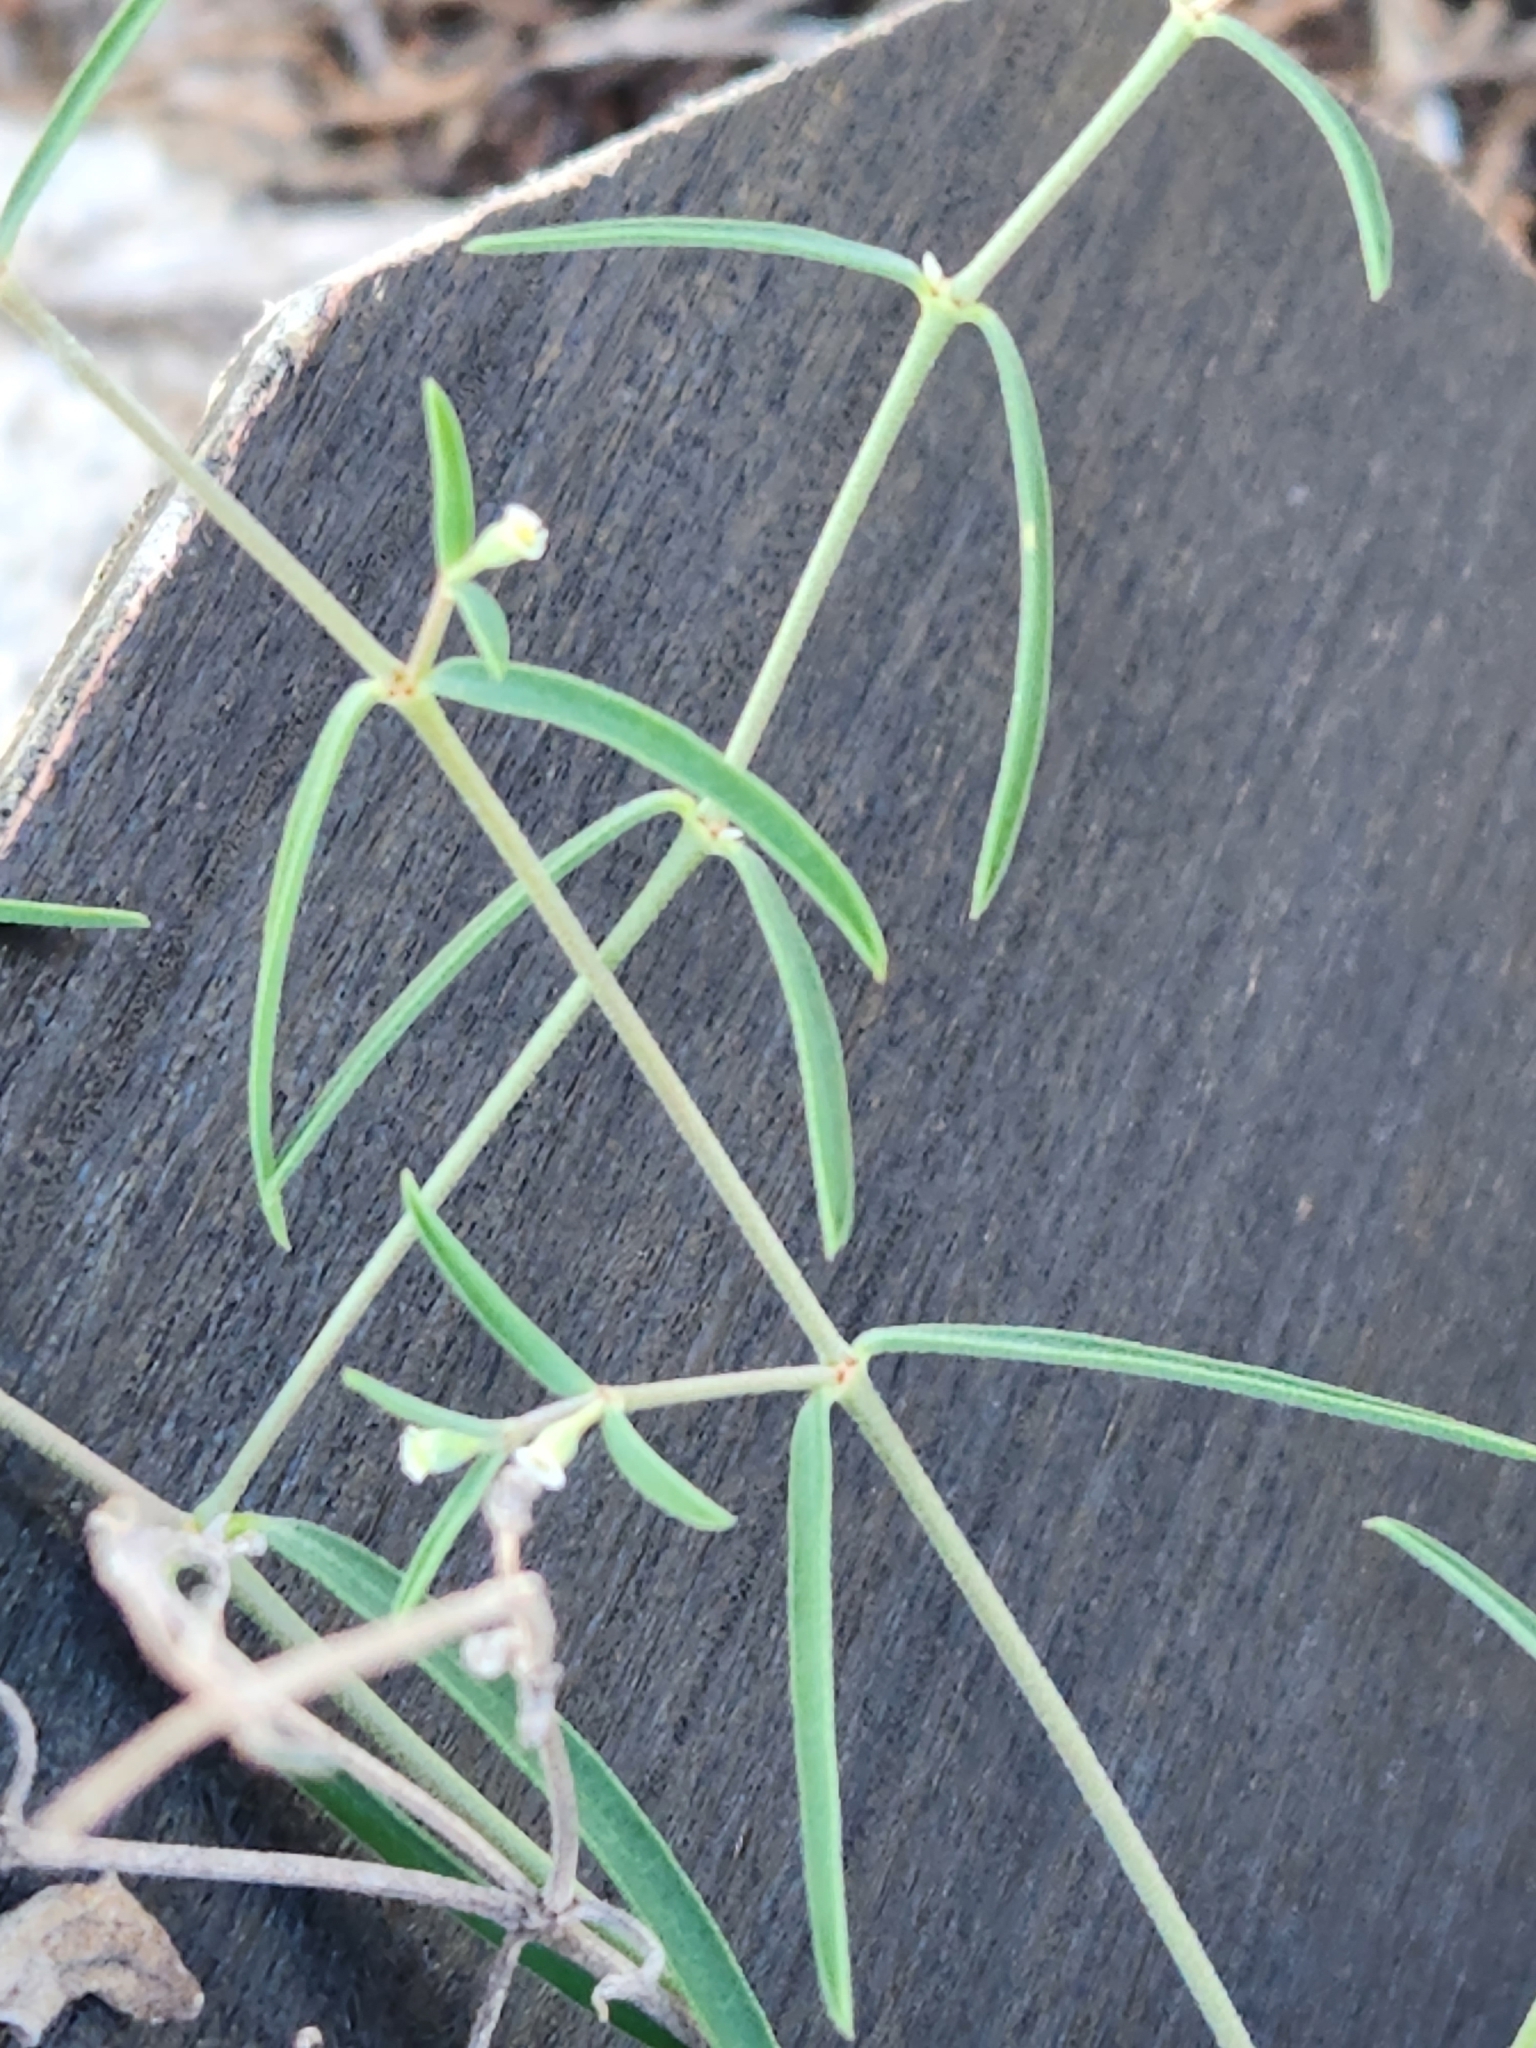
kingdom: Plantae
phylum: Tracheophyta
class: Magnoliopsida
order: Malpighiales
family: Euphorbiaceae
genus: Euphorbia
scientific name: Euphorbia angusta
